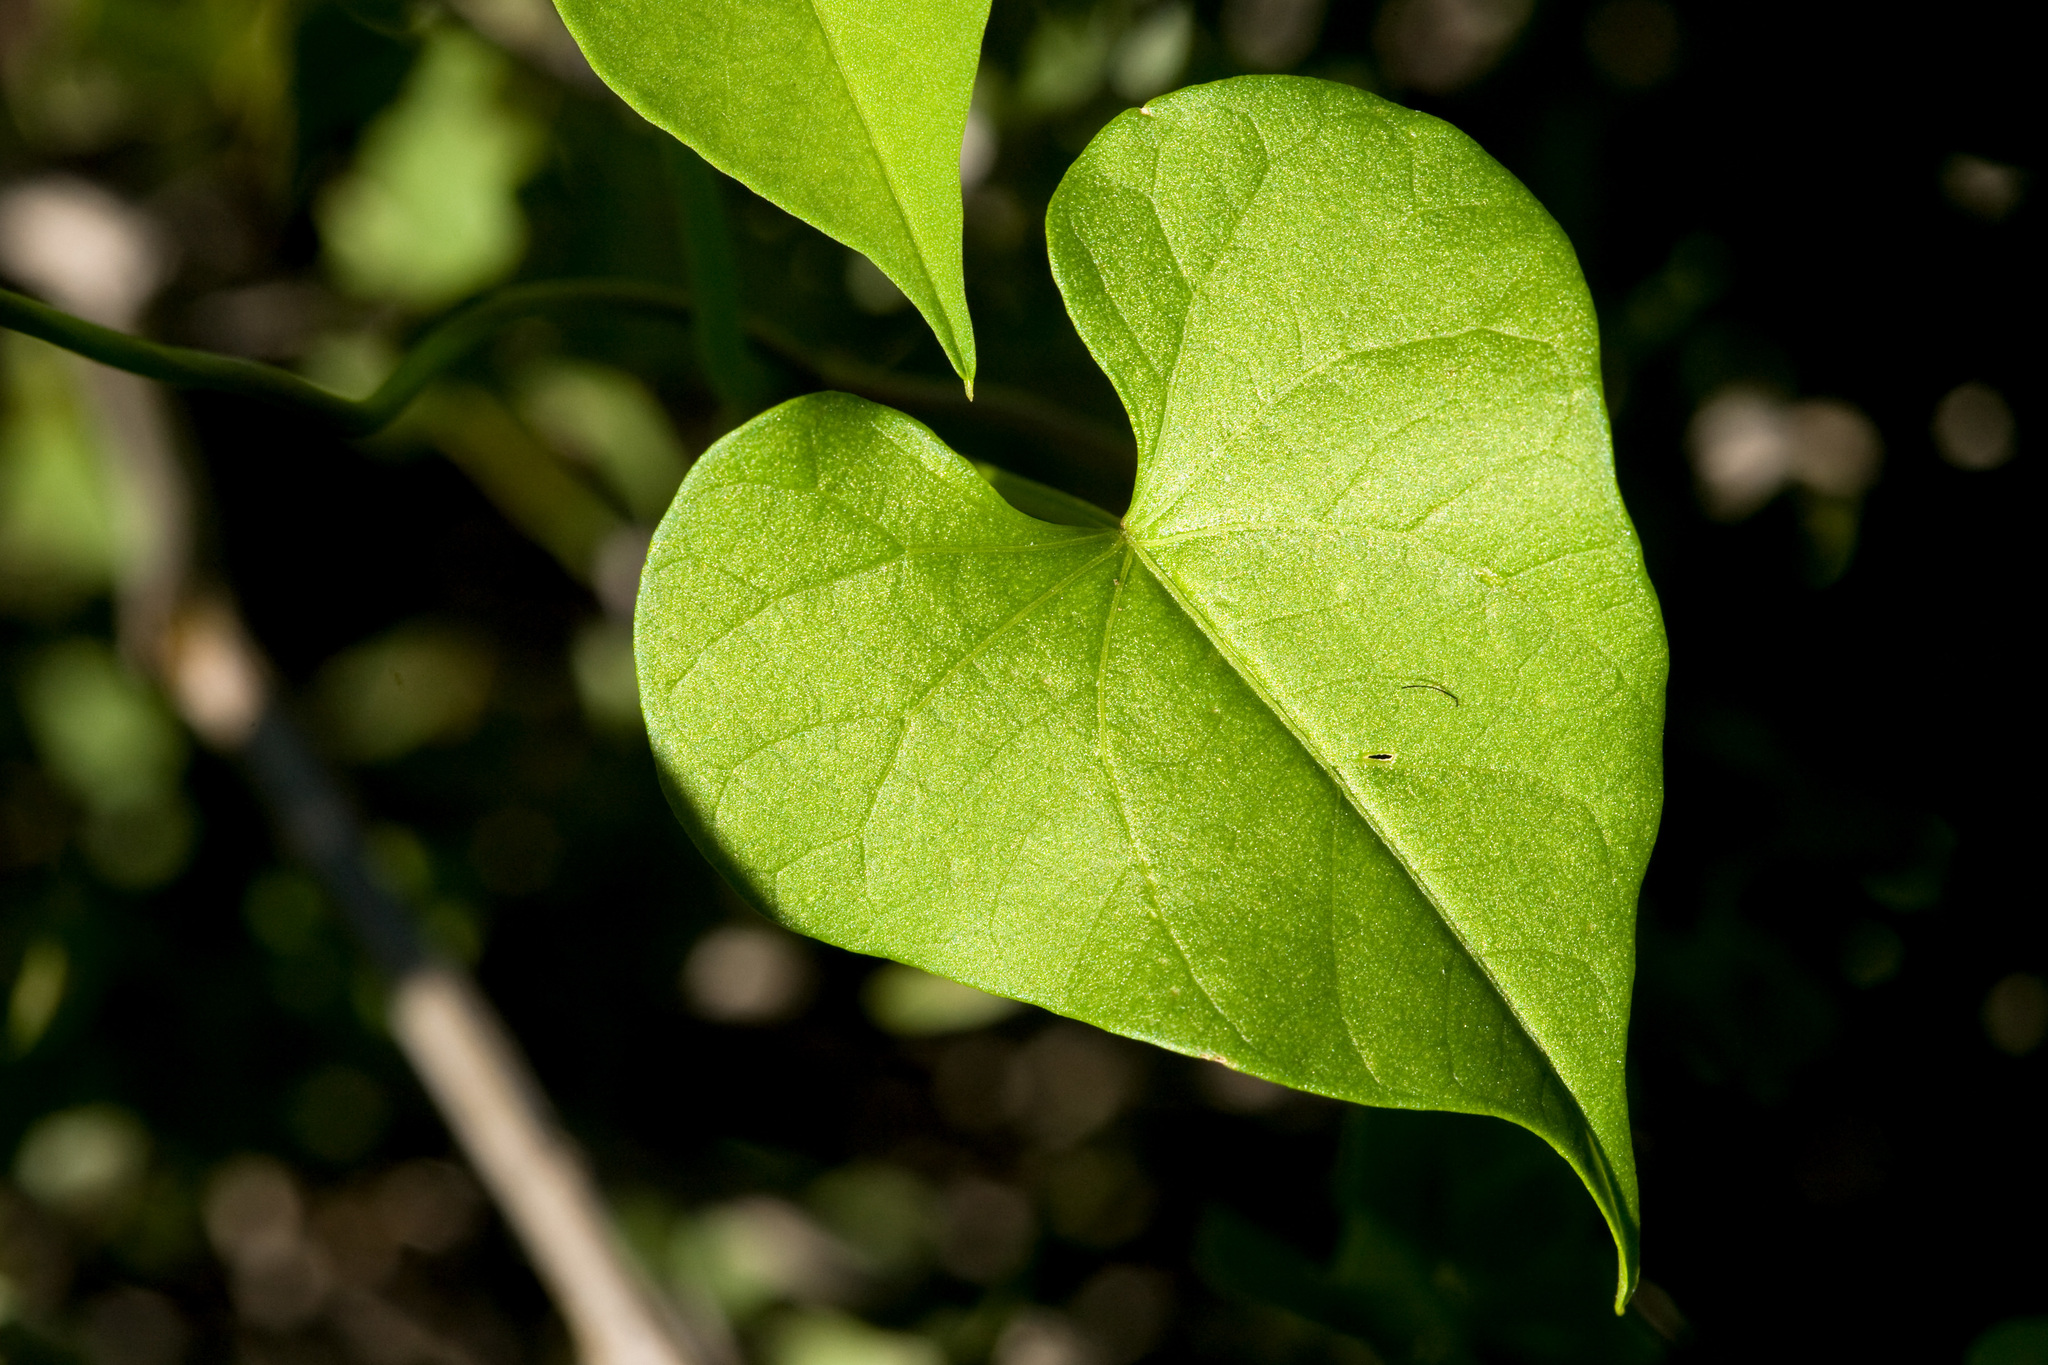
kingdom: Plantae
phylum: Tracheophyta
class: Magnoliopsida
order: Solanales
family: Convolvulaceae
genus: Ipomoea
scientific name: Ipomoea cardiophylla
